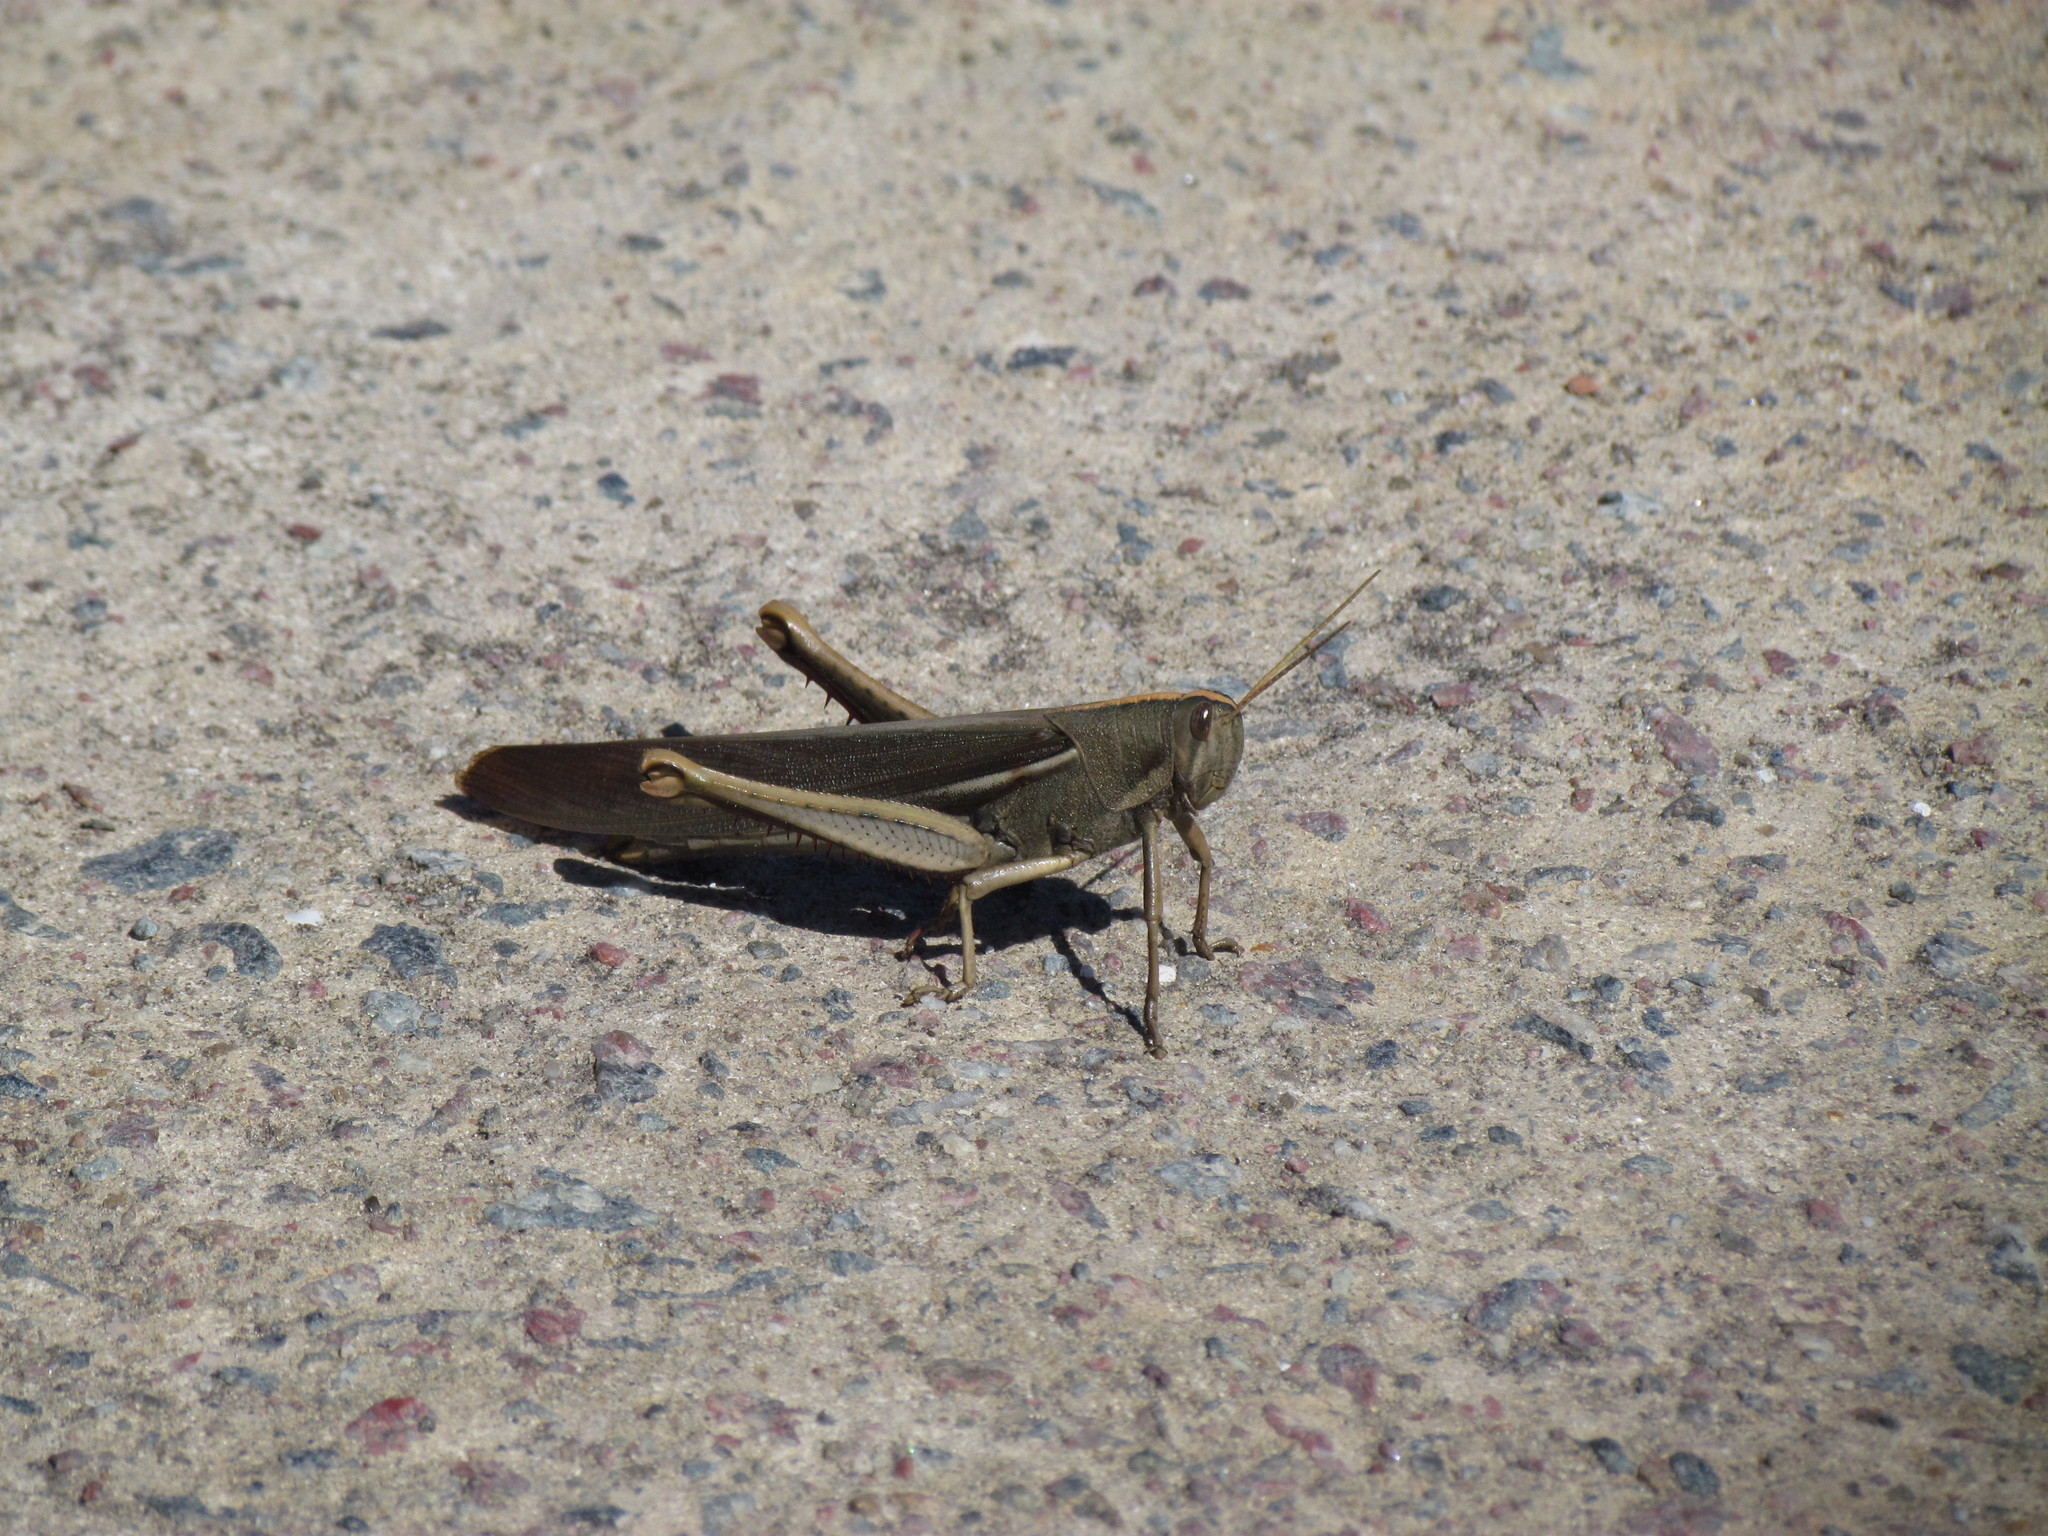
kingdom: Animalia
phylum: Arthropoda
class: Insecta
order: Orthoptera
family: Acrididae
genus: Schistocerca
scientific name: Schistocerca flavofasciata
